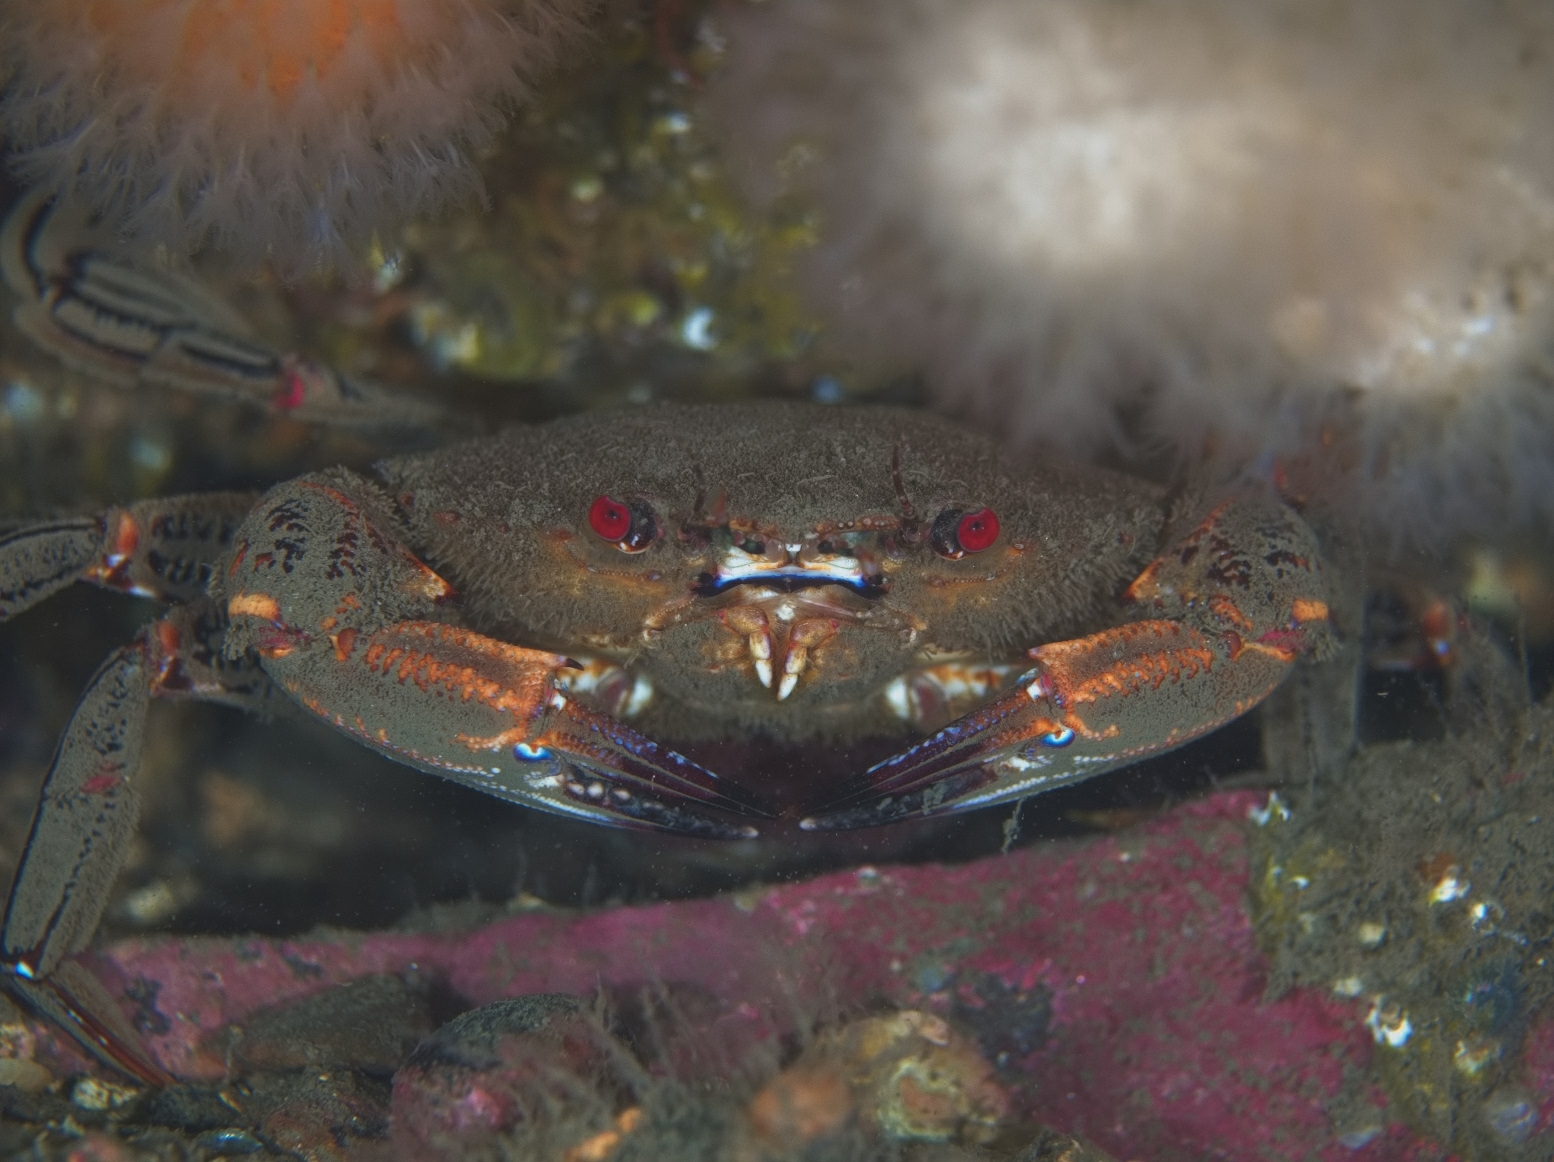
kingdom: Animalia
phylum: Arthropoda
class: Malacostraca
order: Decapoda
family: Polybiidae
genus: Necora
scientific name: Necora puber
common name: Velvet swimming crab
